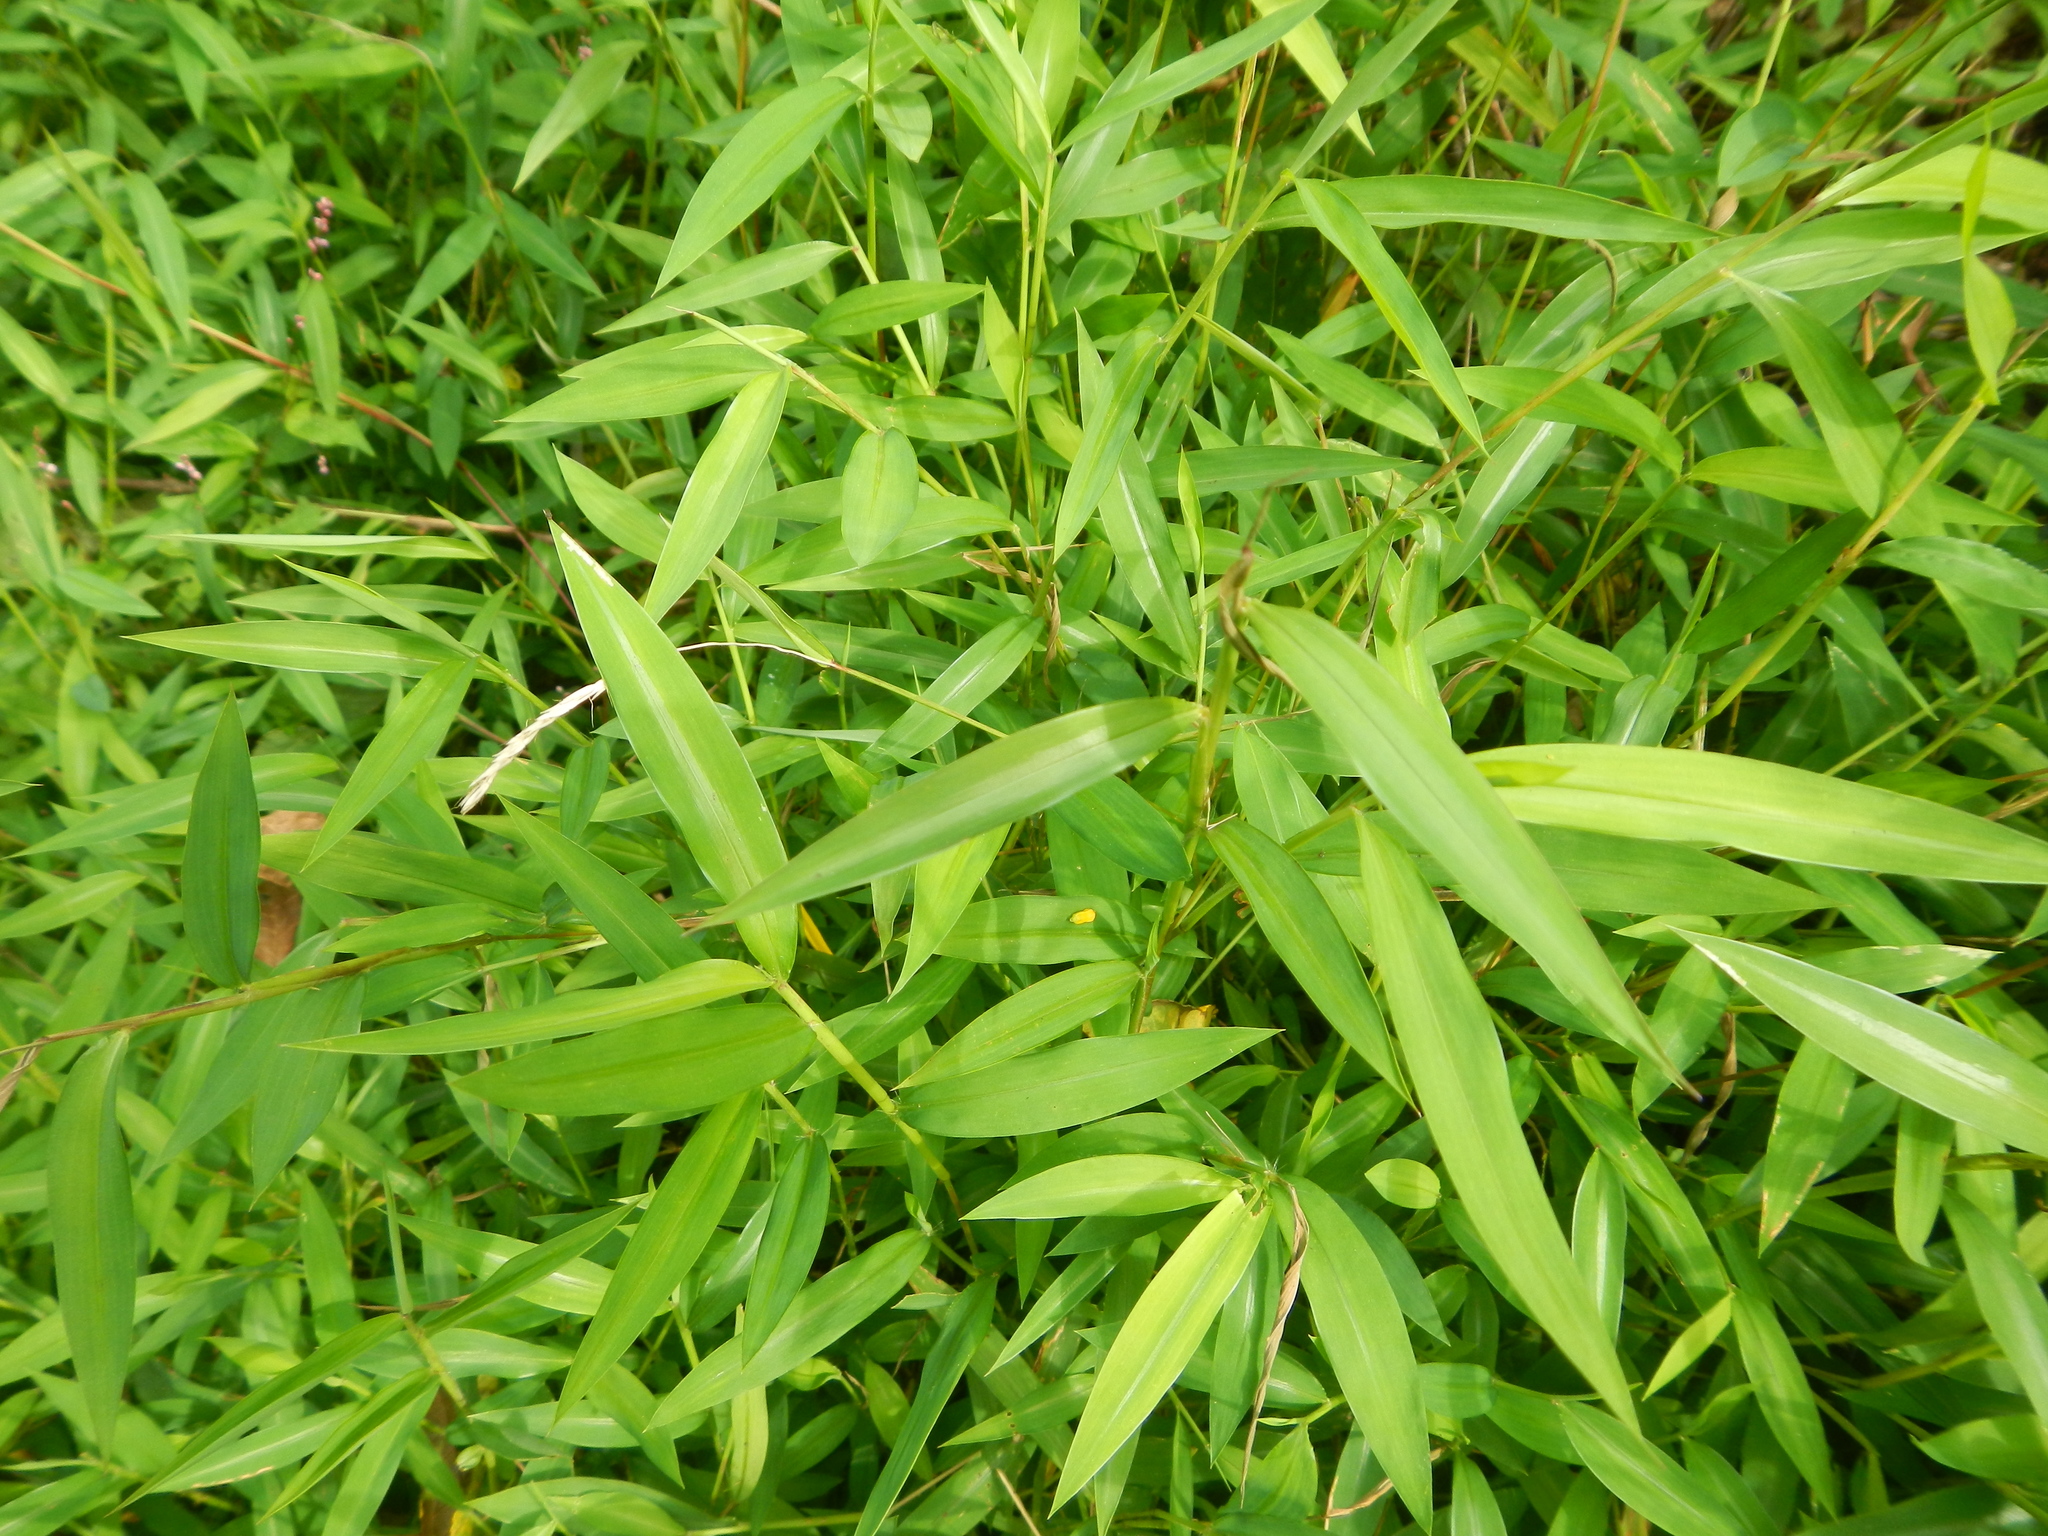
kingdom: Plantae
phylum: Tracheophyta
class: Liliopsida
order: Poales
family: Poaceae
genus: Microstegium
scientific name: Microstegium vimineum
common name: Japanese stiltgrass
